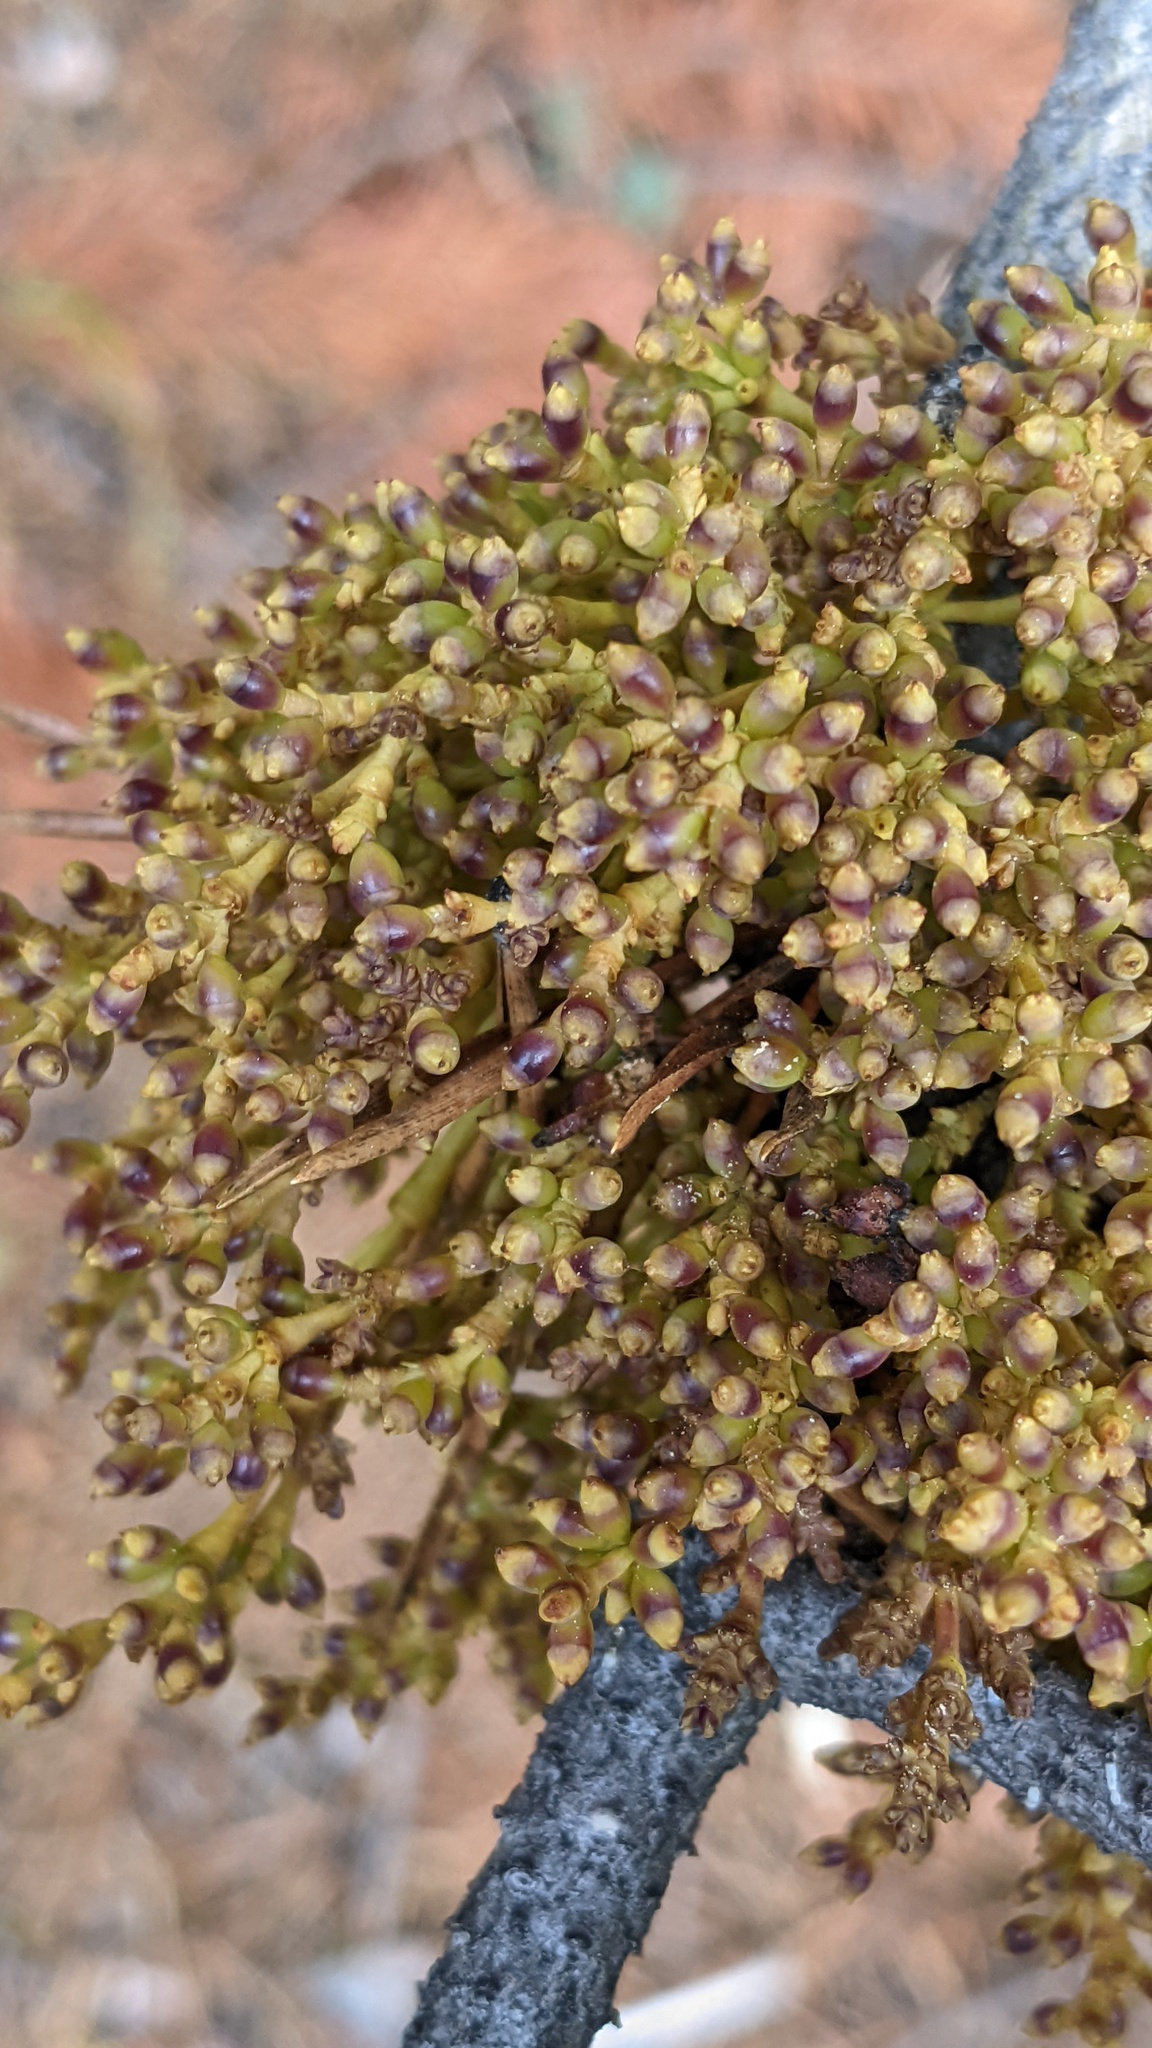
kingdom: Plantae
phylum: Tracheophyta
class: Magnoliopsida
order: Santalales
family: Viscaceae
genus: Arceuthobium
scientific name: Arceuthobium americanum
